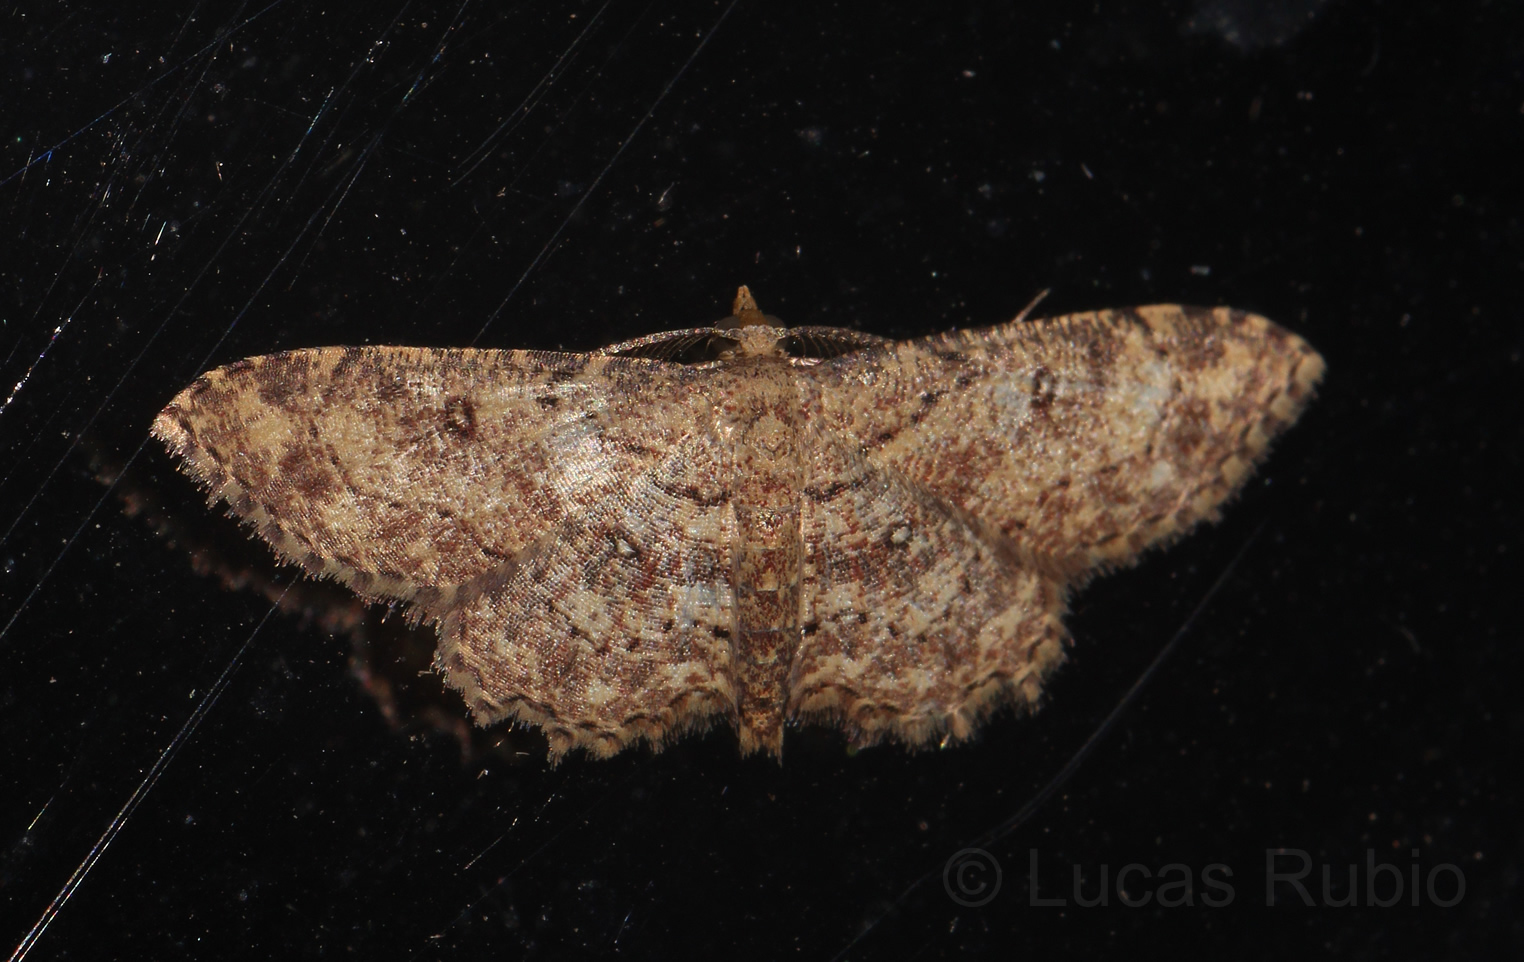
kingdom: Animalia
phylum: Arthropoda
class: Insecta
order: Lepidoptera
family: Geometridae
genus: Cyclophora
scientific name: Cyclophora nanaria
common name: Cankerworm
